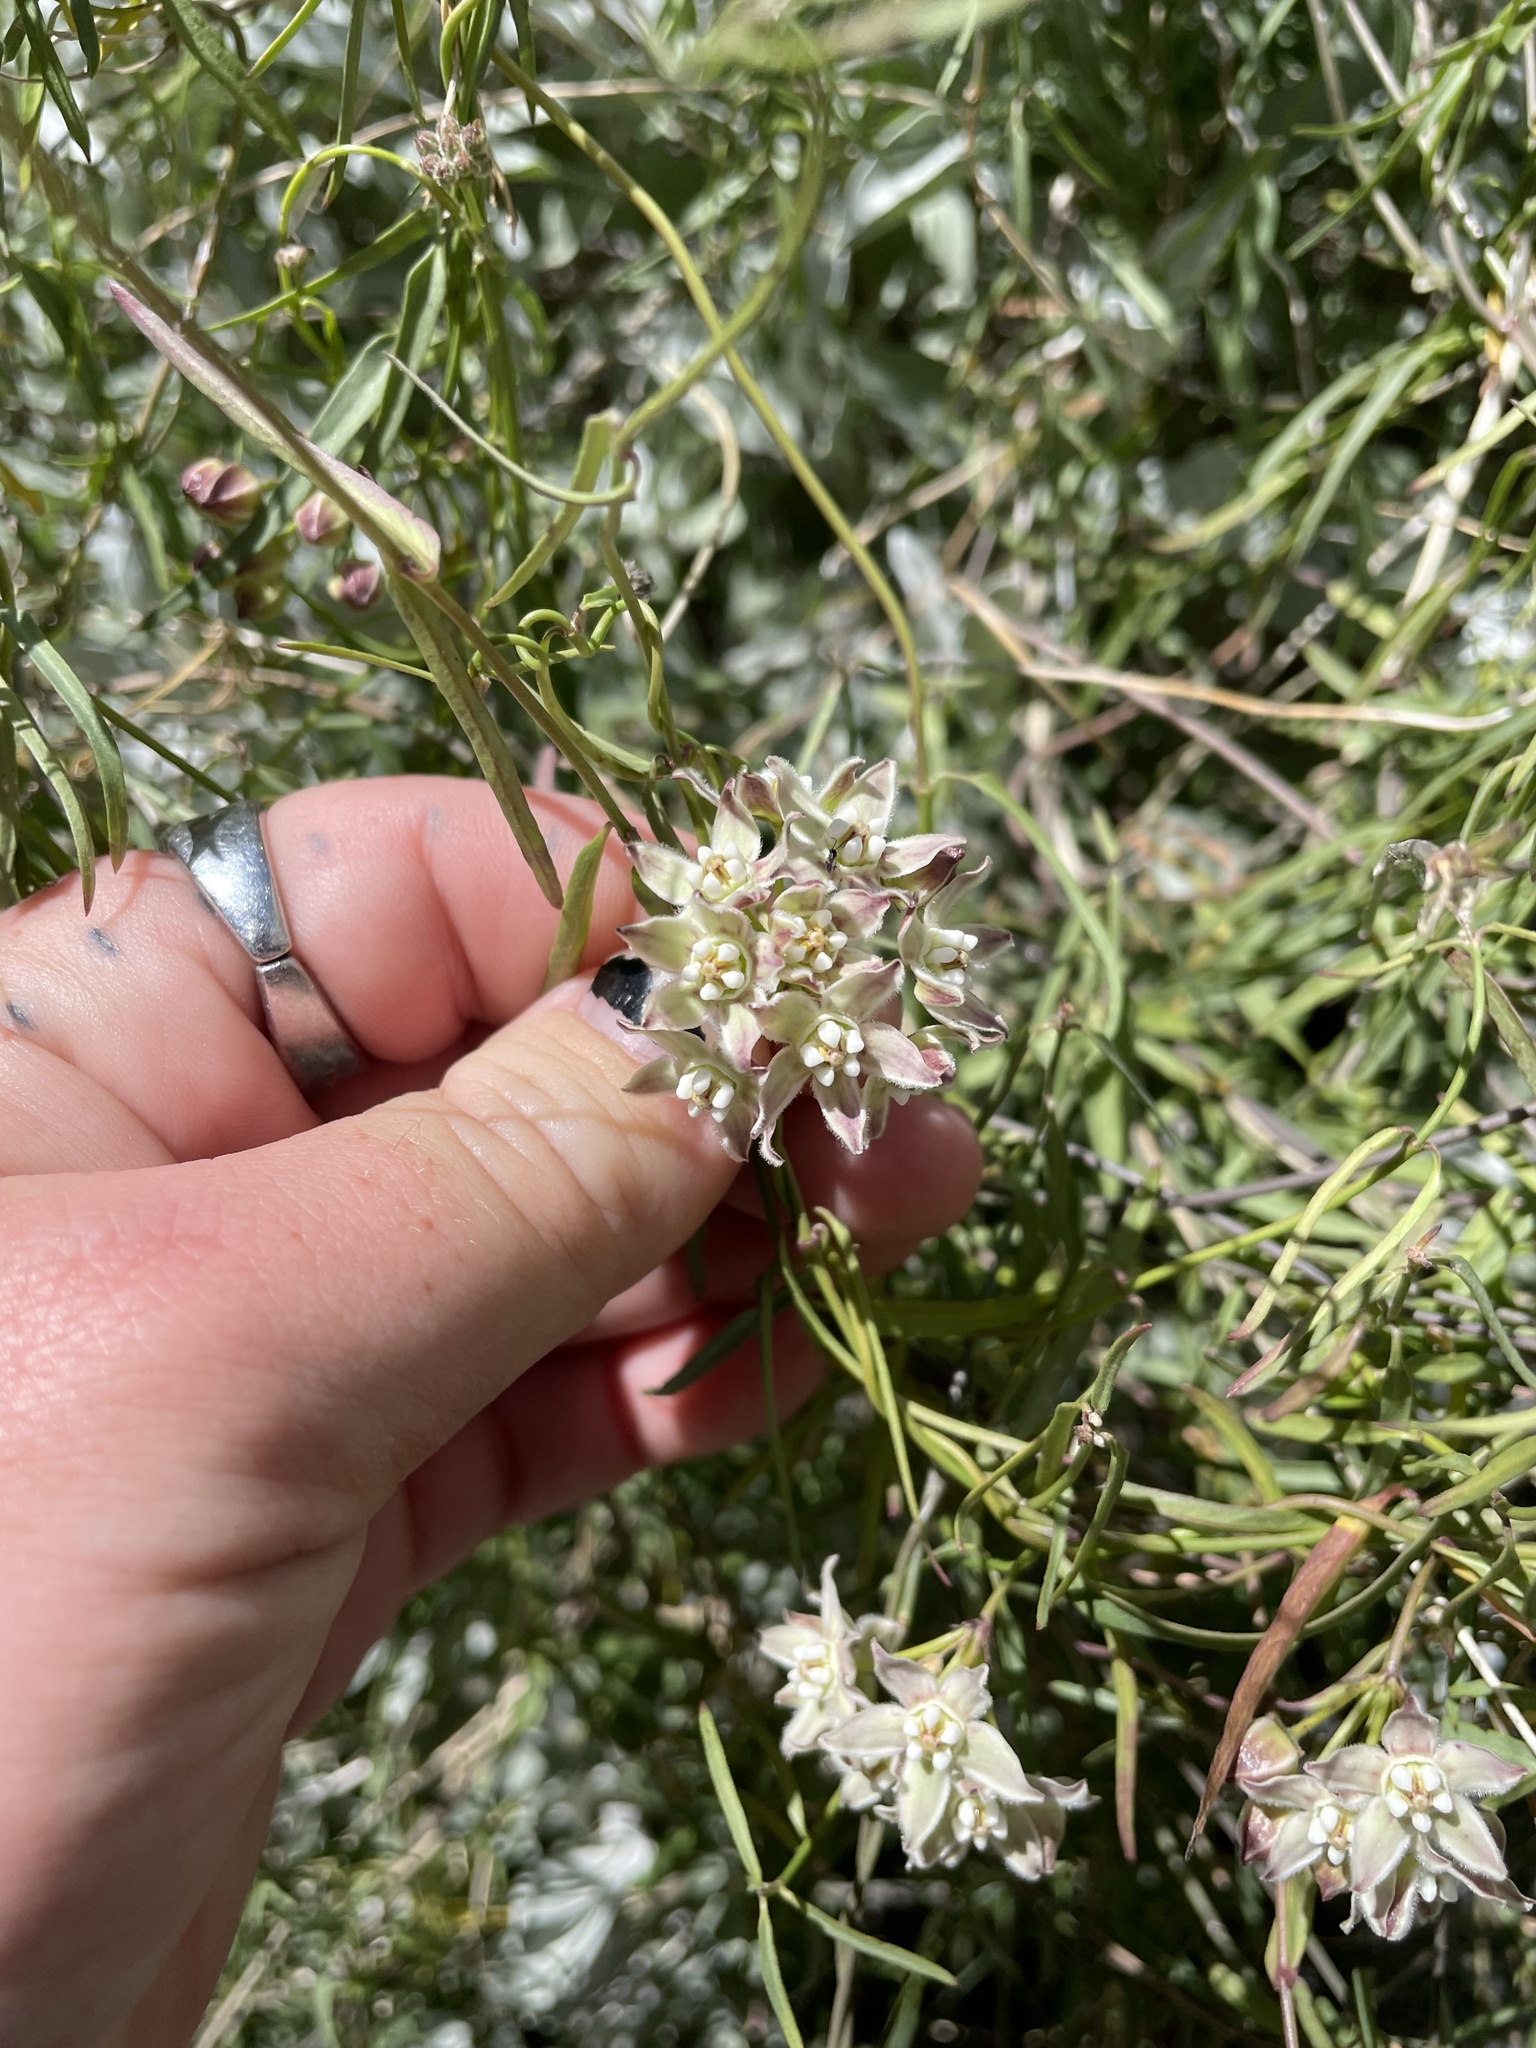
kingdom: Plantae
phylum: Tracheophyta
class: Magnoliopsida
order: Gentianales
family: Apocynaceae
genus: Funastrum
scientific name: Funastrum heterophyllum
